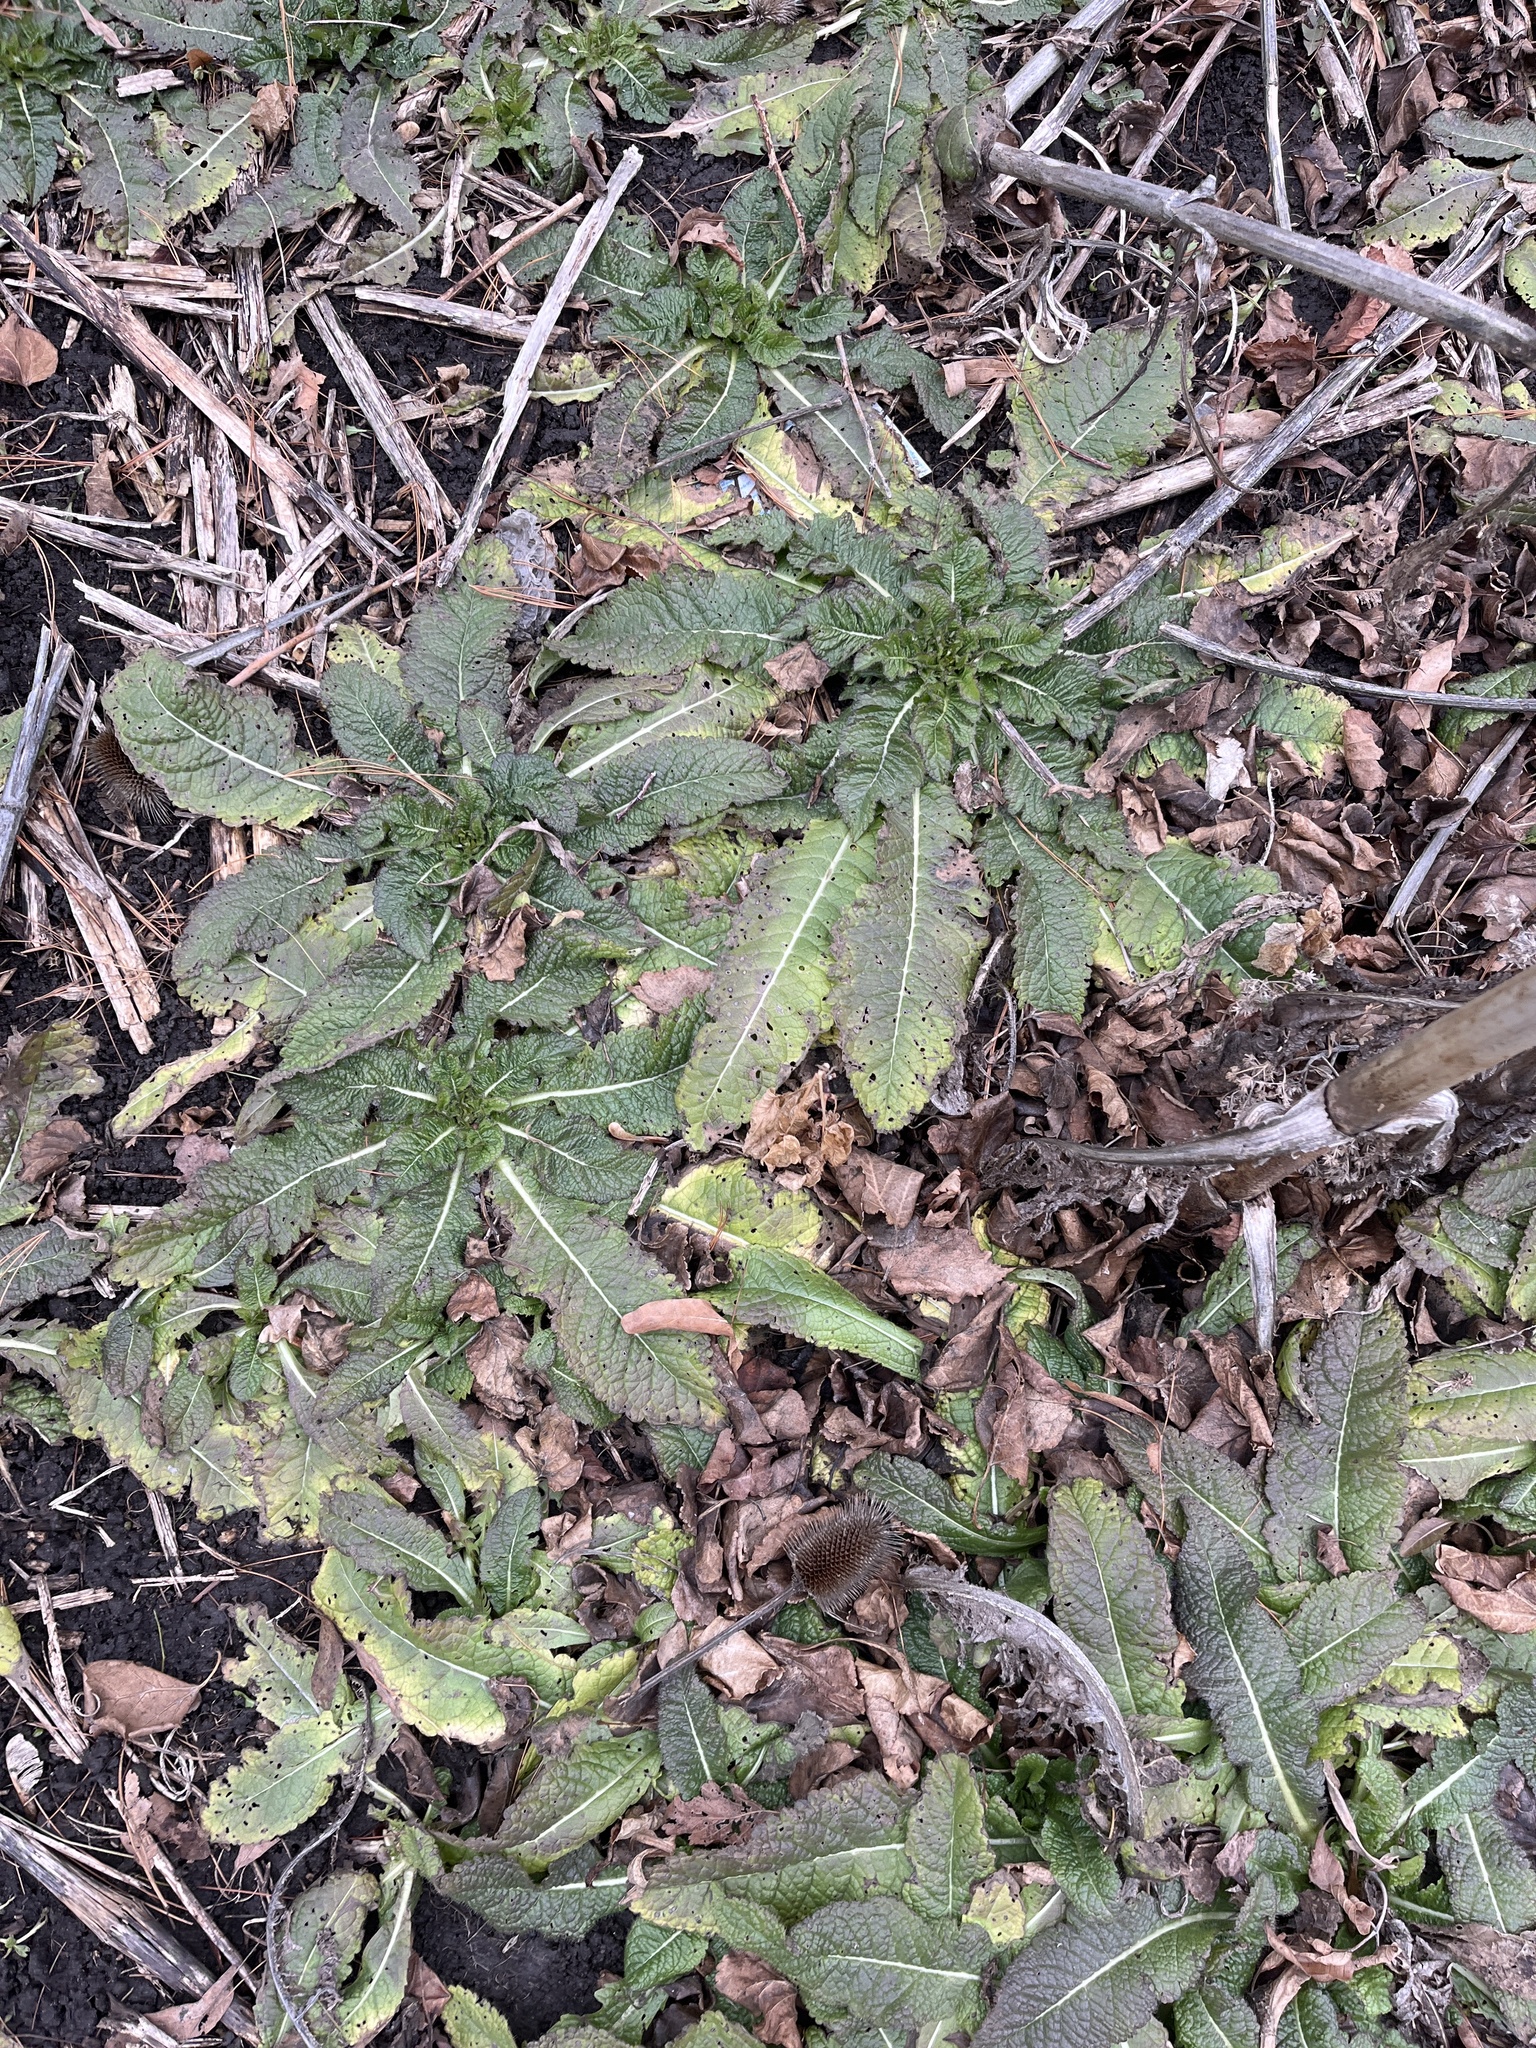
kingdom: Plantae
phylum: Tracheophyta
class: Magnoliopsida
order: Dipsacales
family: Caprifoliaceae
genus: Dipsacus
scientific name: Dipsacus laciniatus
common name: Cut-leaved teasel
